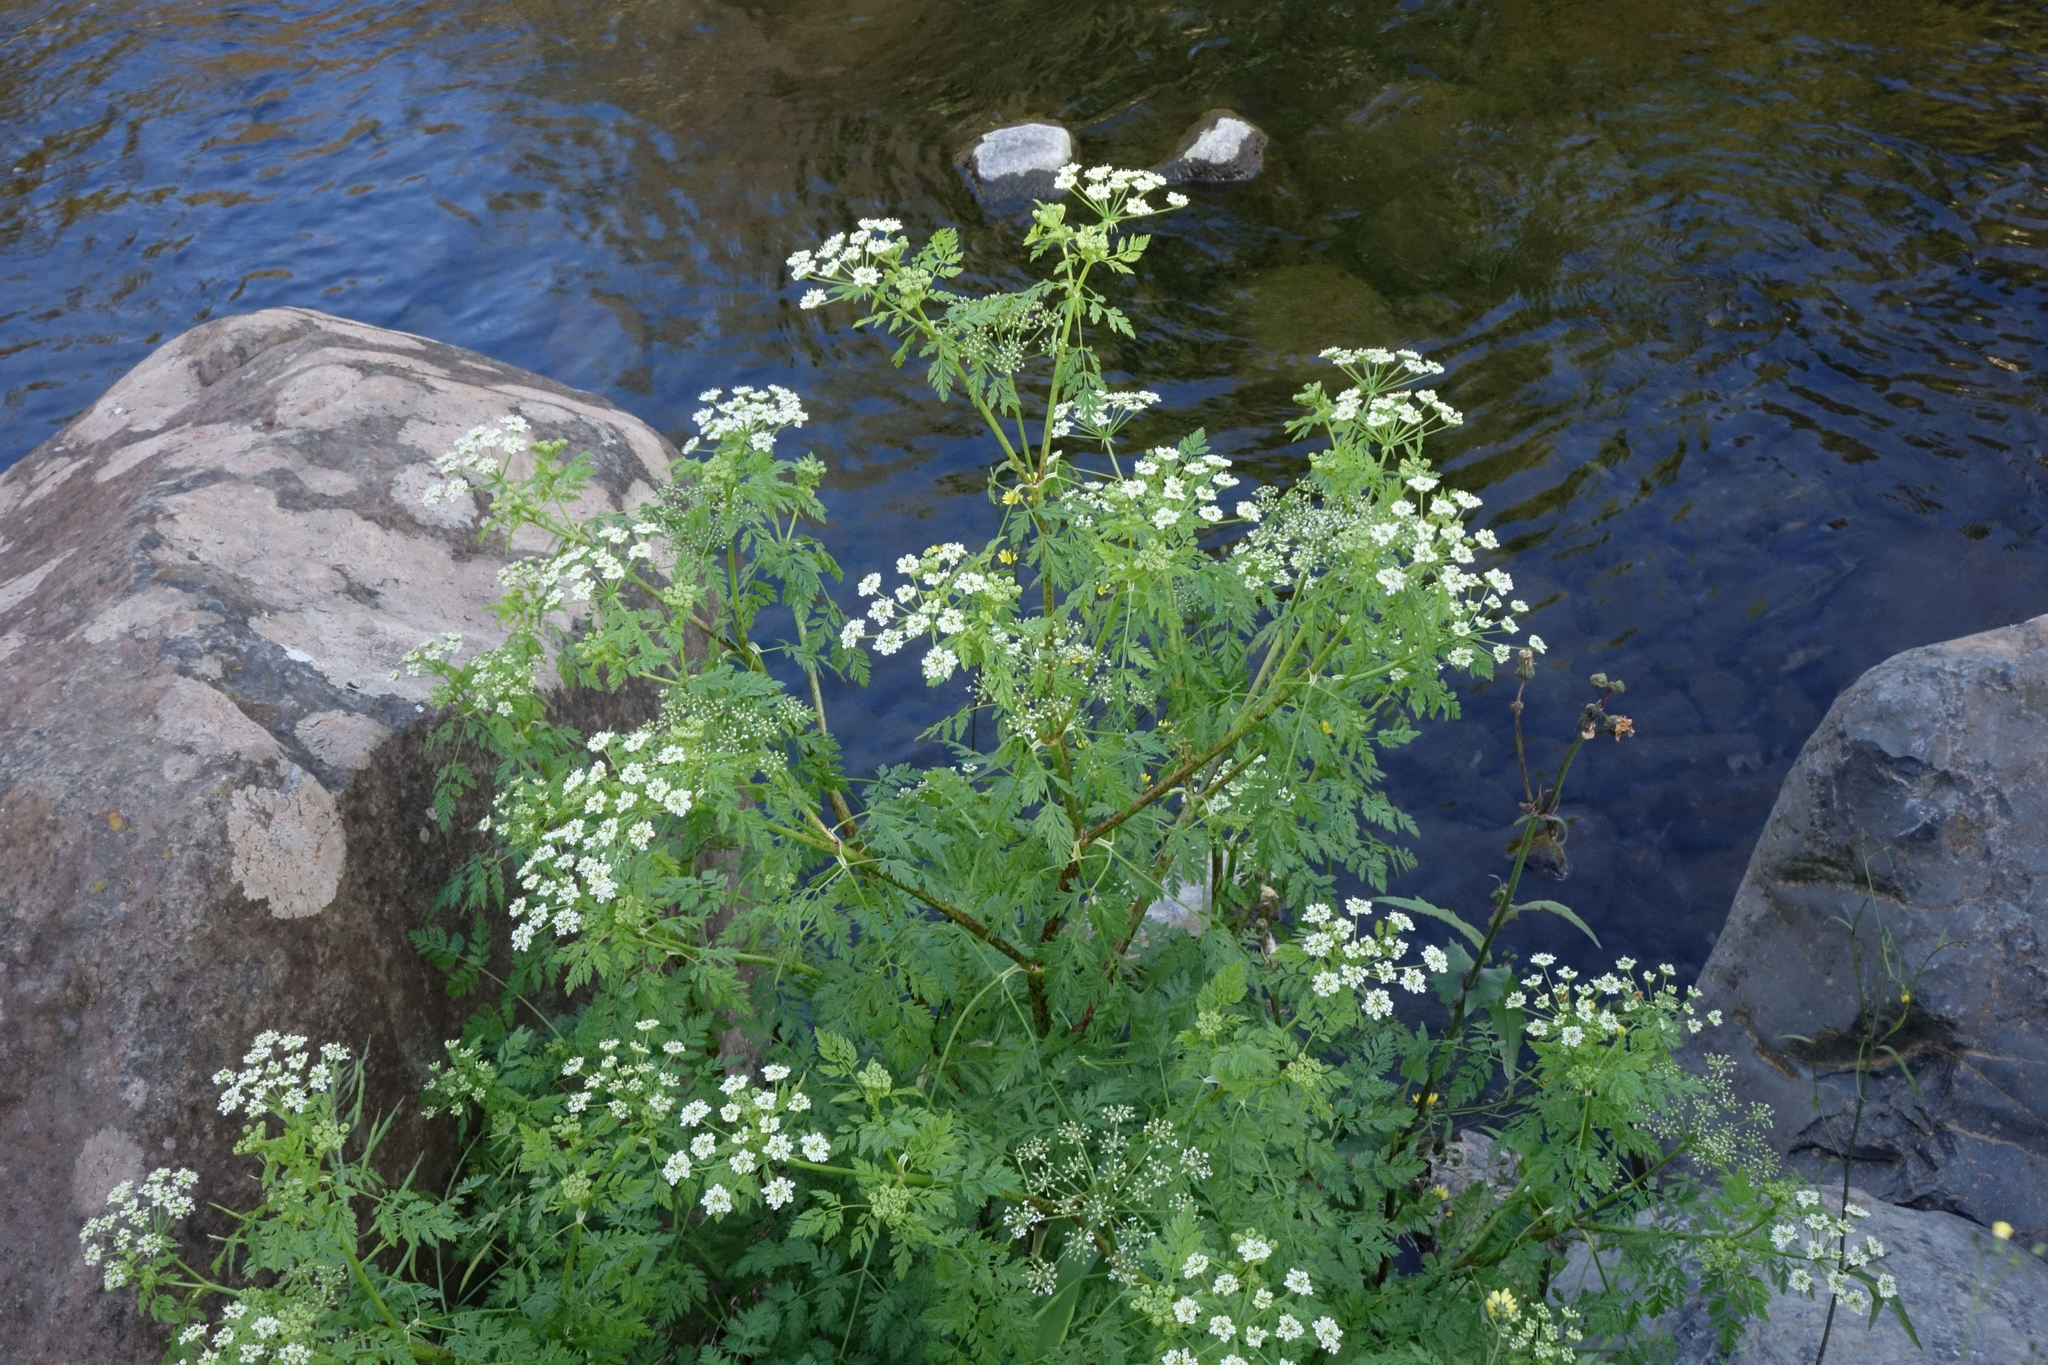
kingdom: Plantae
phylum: Tracheophyta
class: Magnoliopsida
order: Apiales
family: Apiaceae
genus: Conium
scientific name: Conium maculatum
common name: Hemlock
